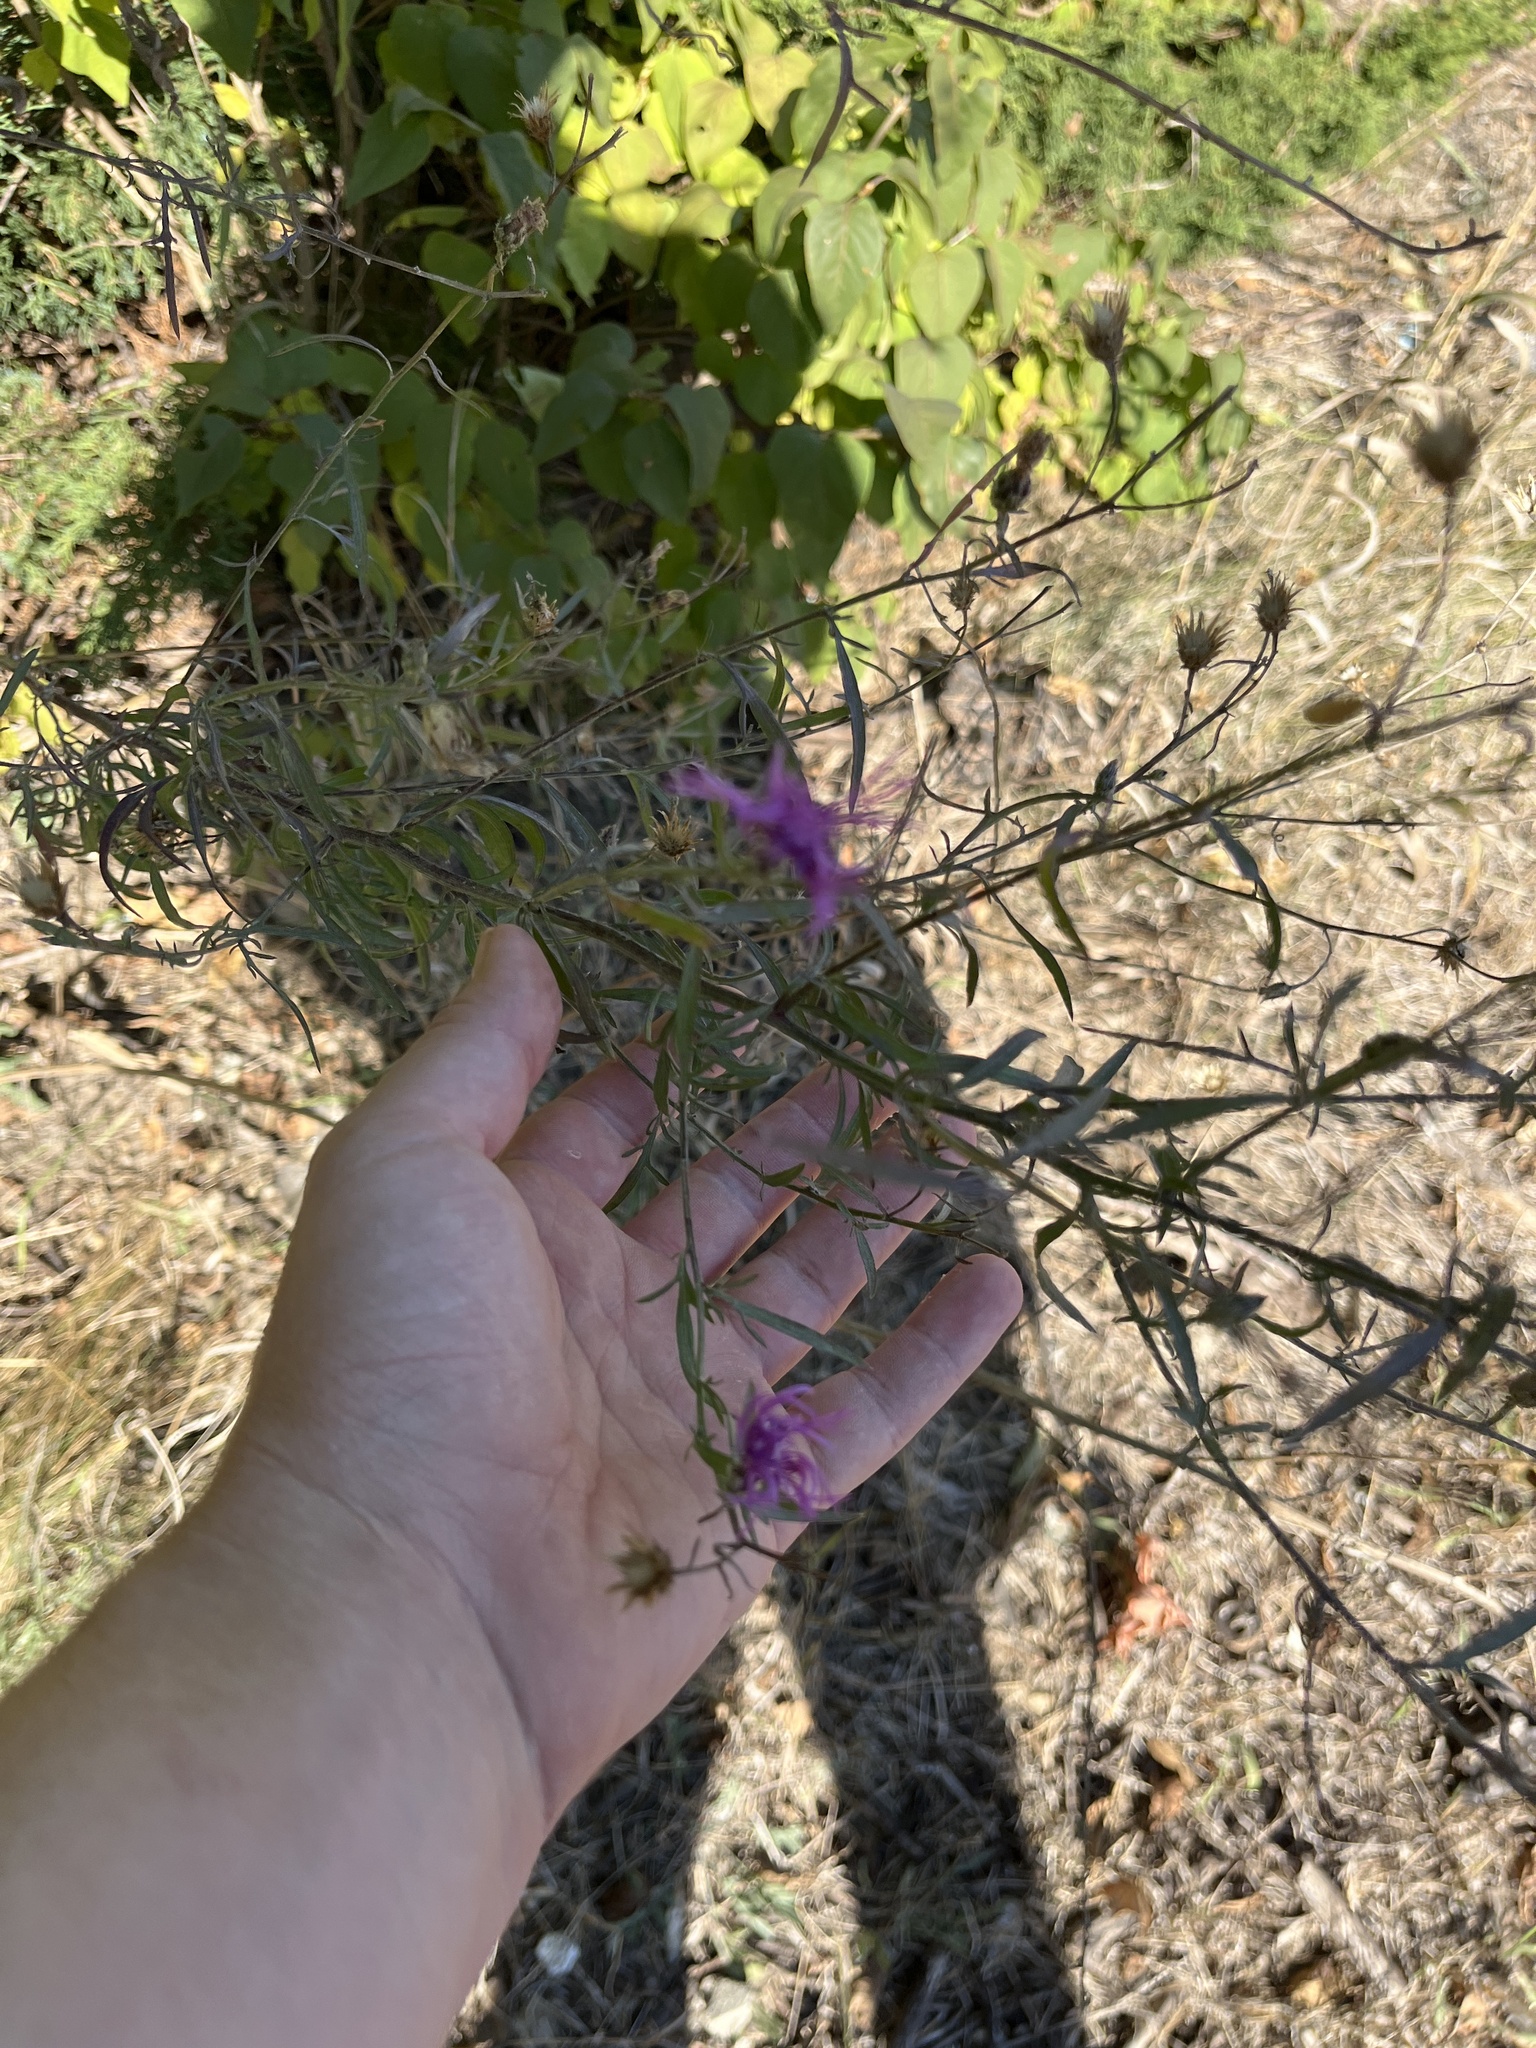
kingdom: Plantae
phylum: Tracheophyta
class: Magnoliopsida
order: Asterales
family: Asteraceae
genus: Centaurea
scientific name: Centaurea stoebe
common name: Spotted knapweed
